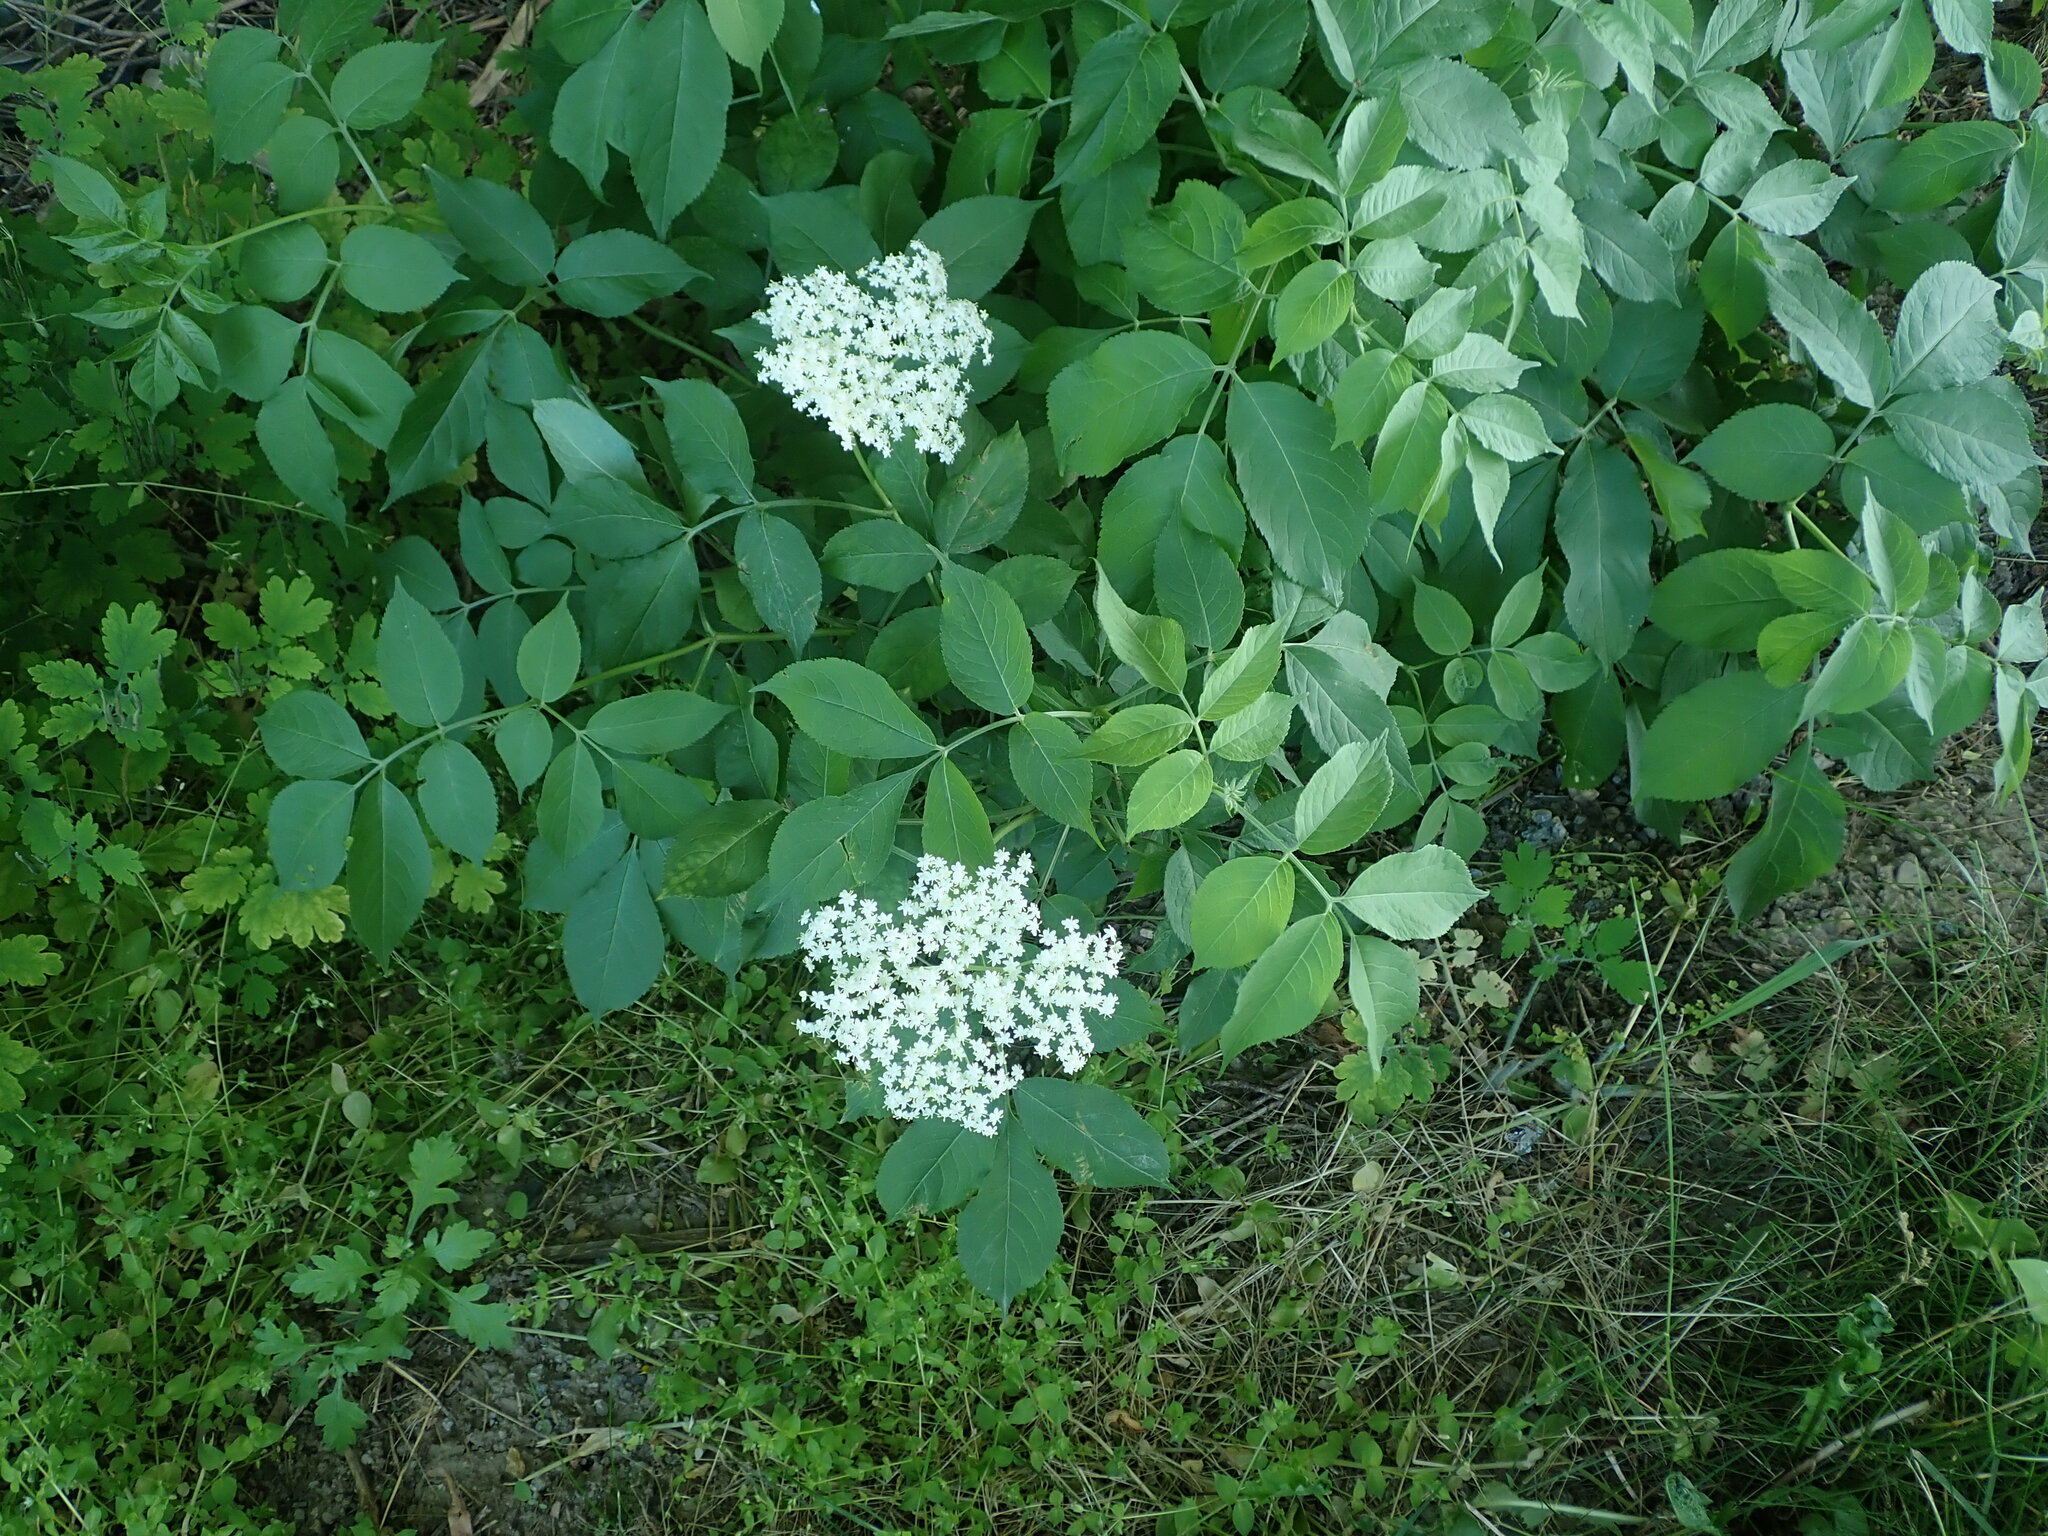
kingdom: Plantae
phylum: Tracheophyta
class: Magnoliopsida
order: Dipsacales
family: Viburnaceae
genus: Sambucus
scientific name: Sambucus nigra
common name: Elder
